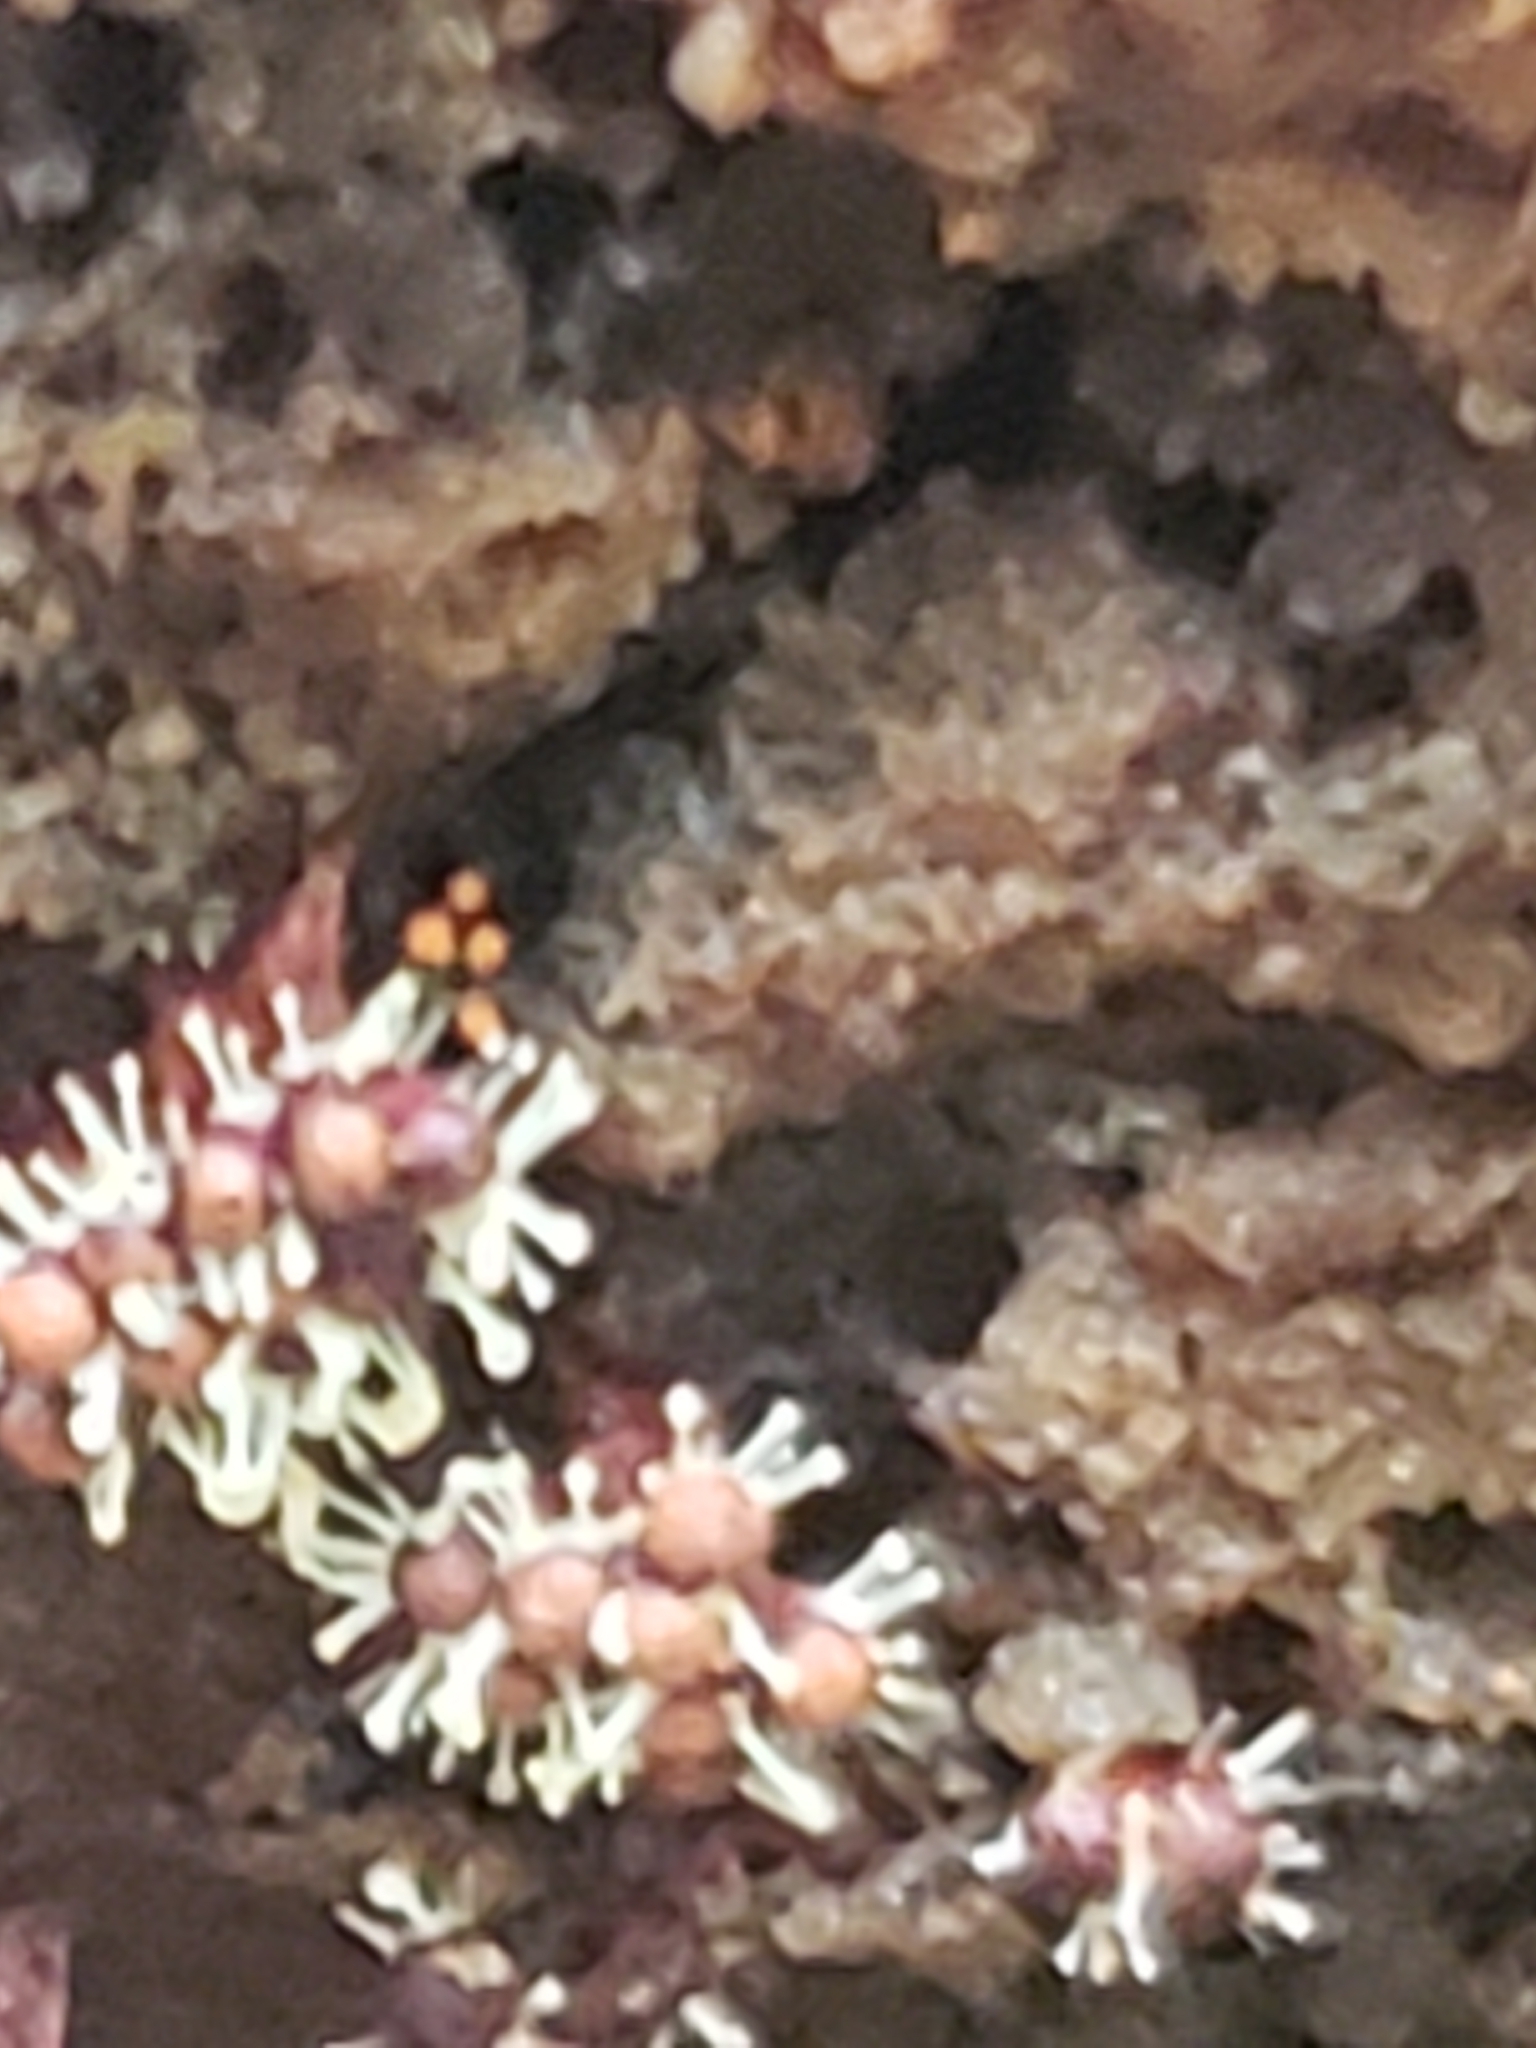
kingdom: Fungi
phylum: Ascomycota
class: Sordariomycetes
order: Hypocreales
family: Ophiocordycipitaceae
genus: Polycephalomyces
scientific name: Polycephalomyces tomentosus
